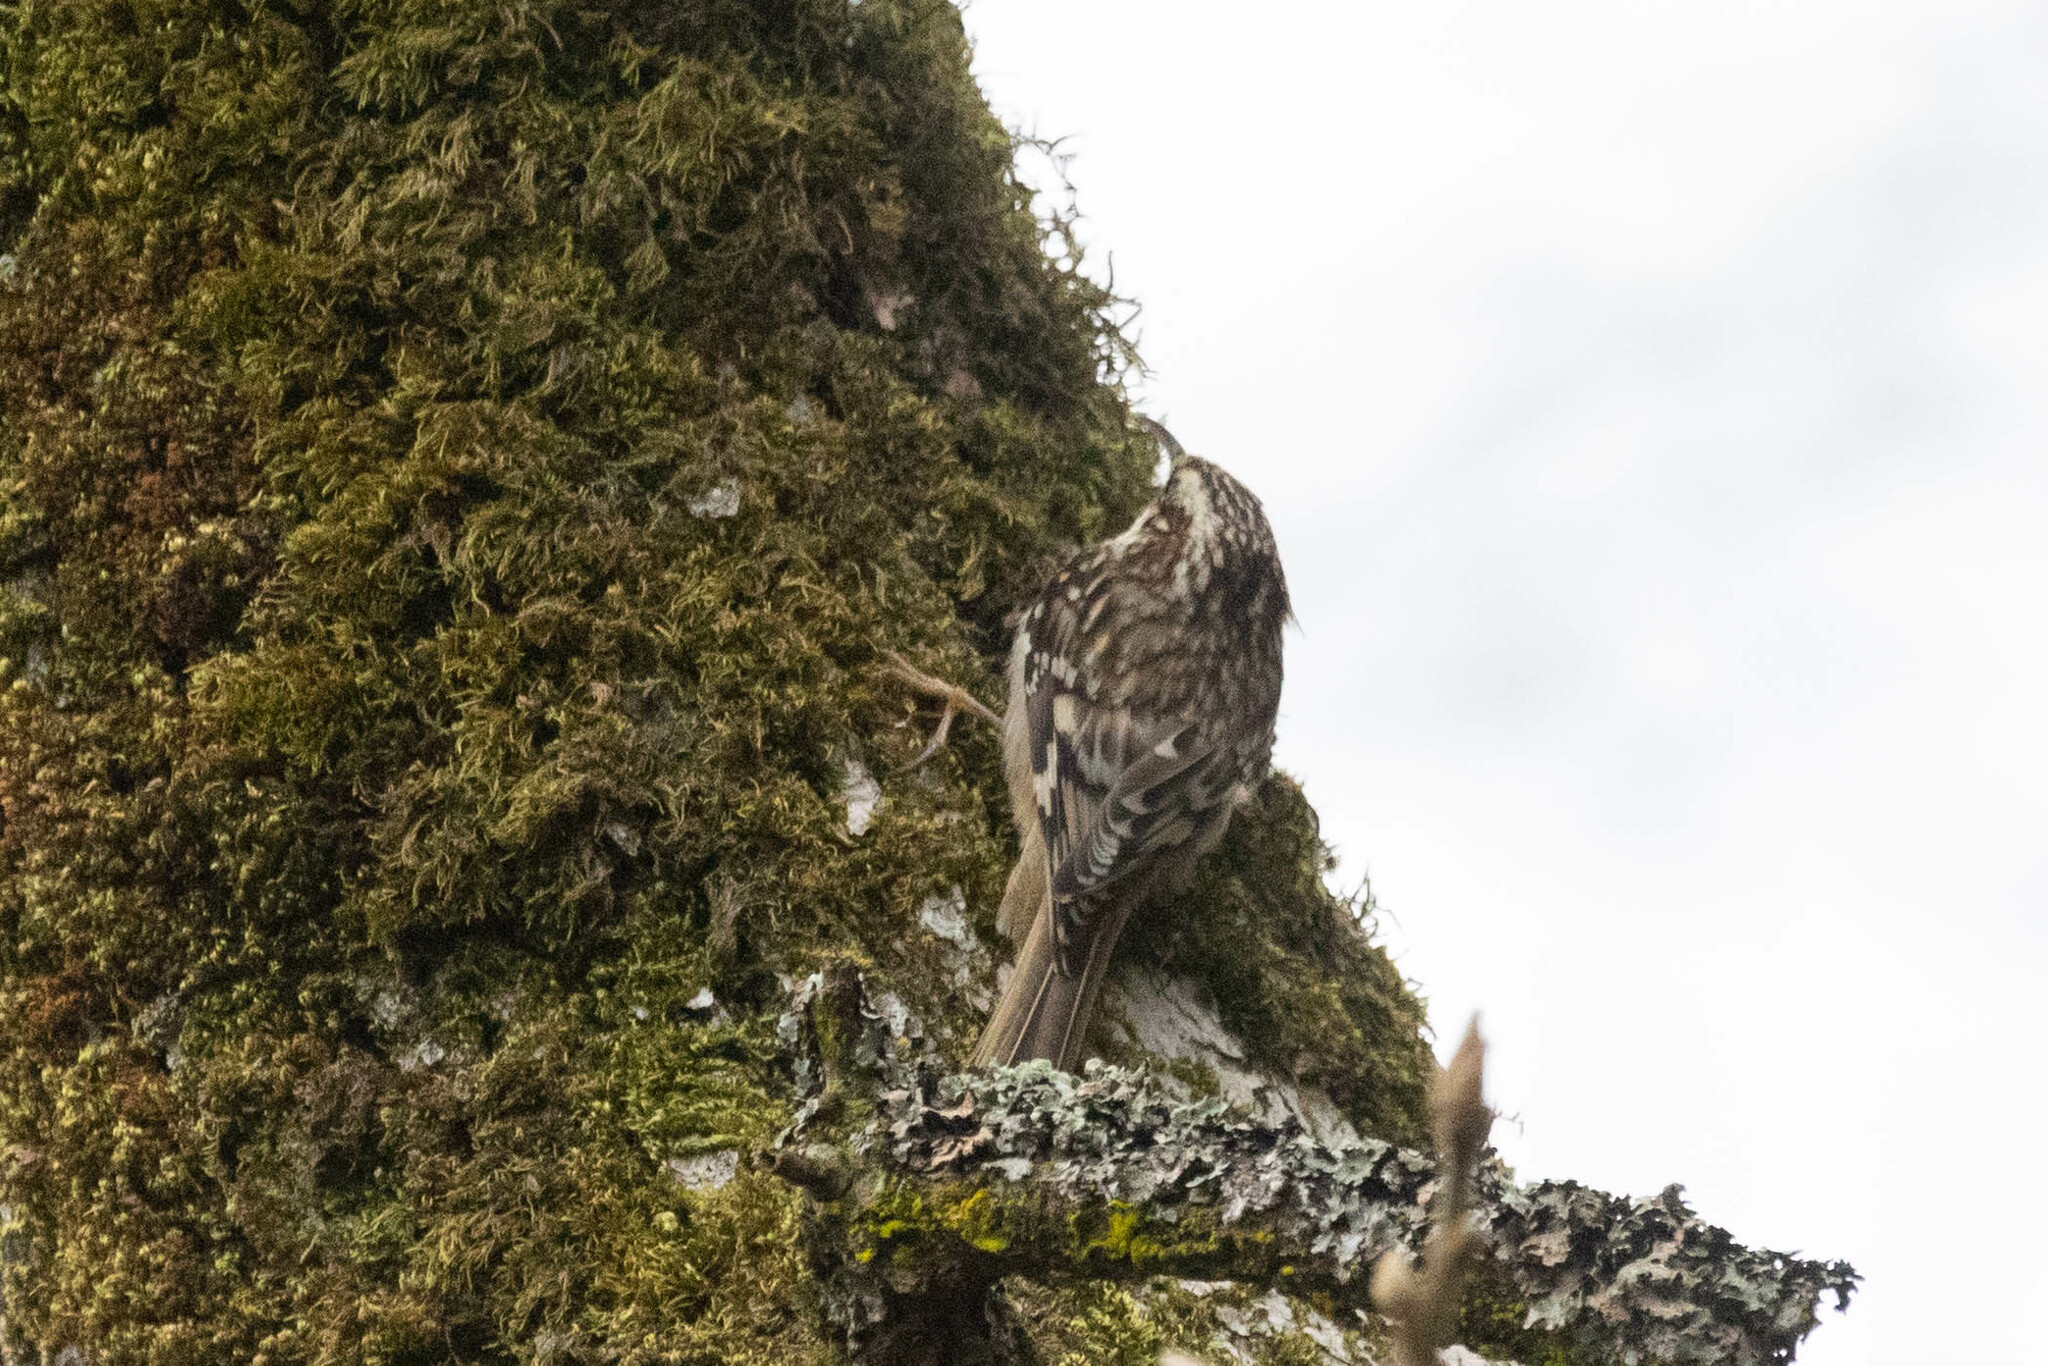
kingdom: Animalia
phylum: Chordata
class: Aves
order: Passeriformes
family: Certhiidae
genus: Certhia
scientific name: Certhia americana
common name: Brown creeper
